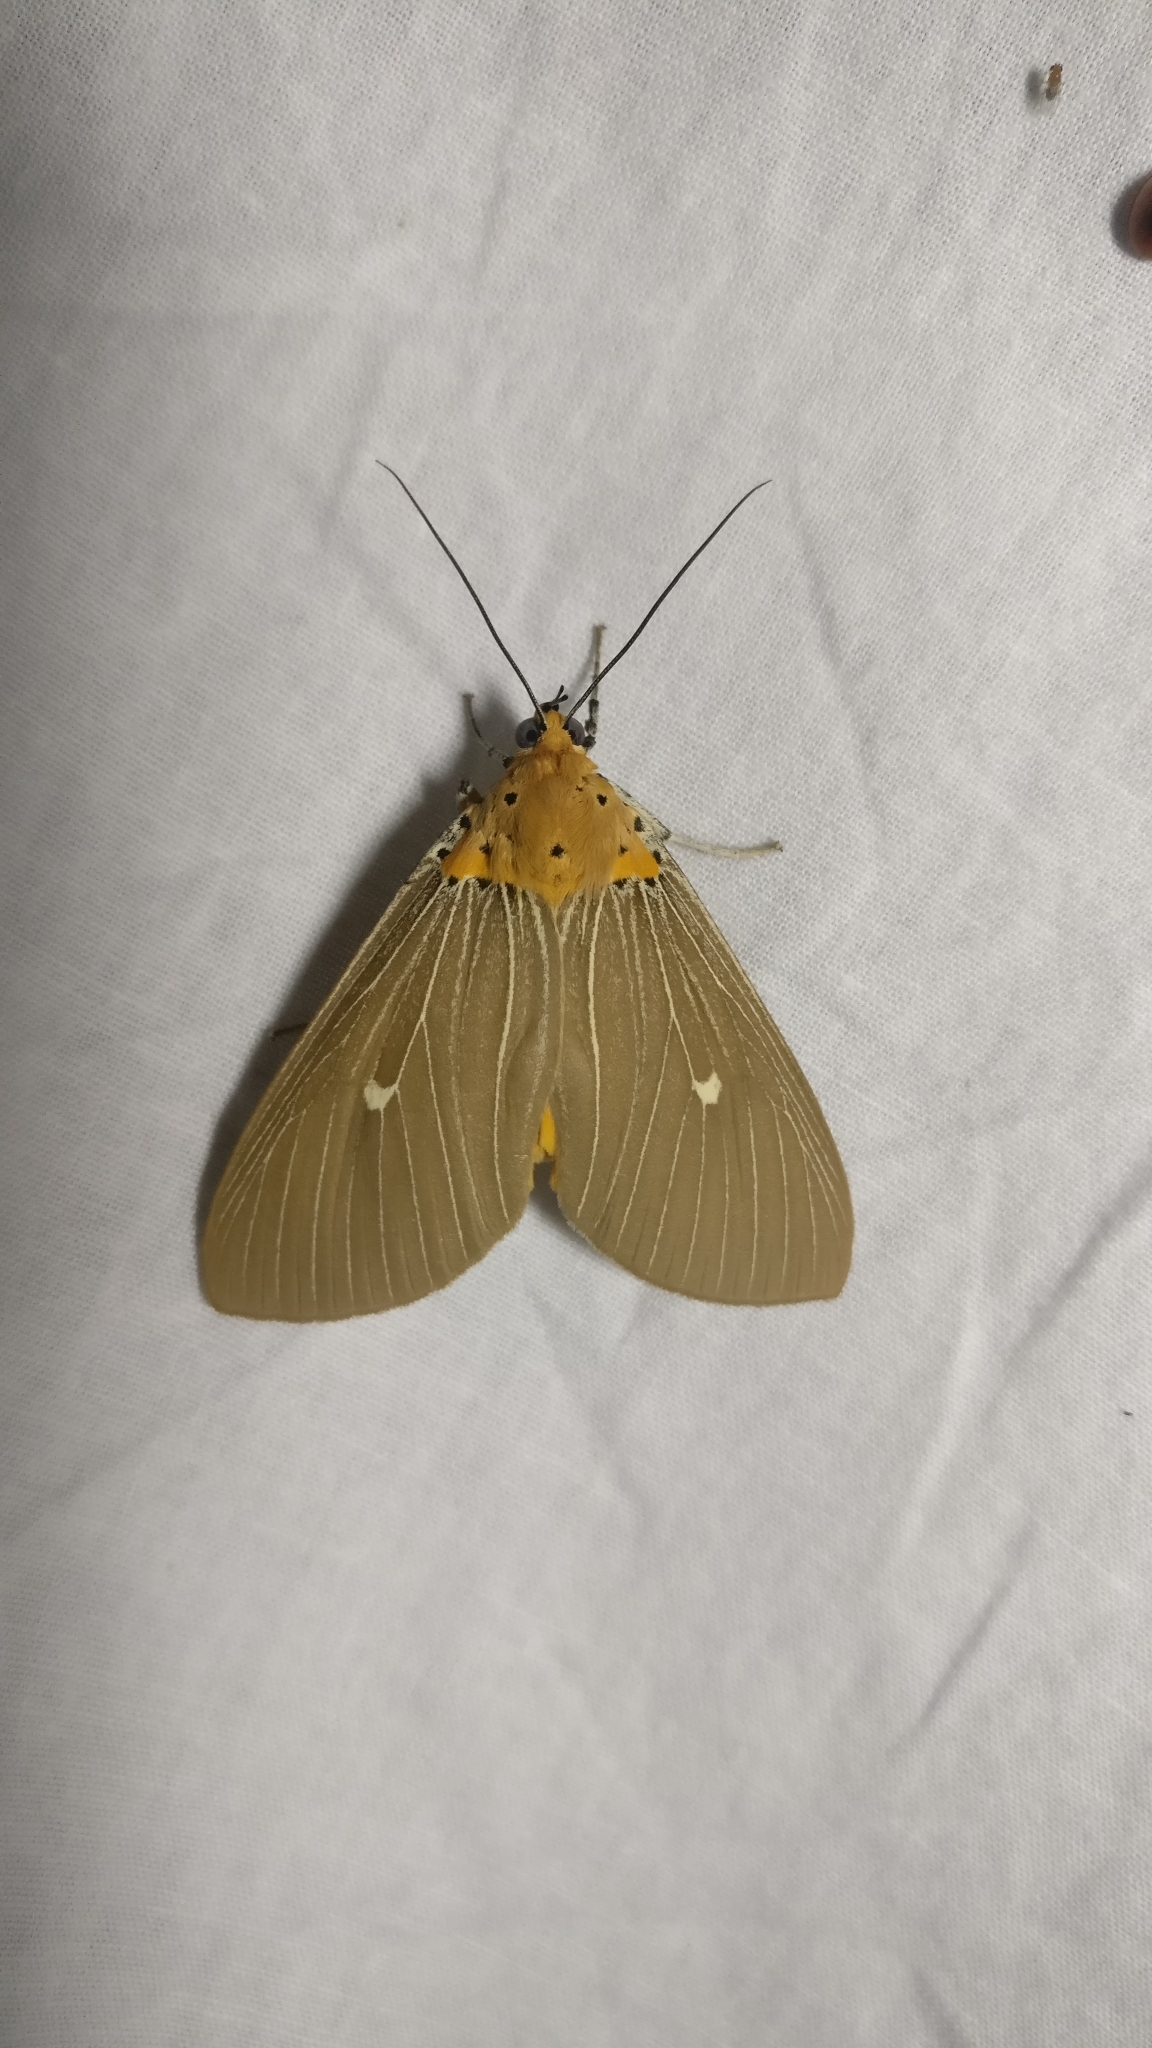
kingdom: Animalia
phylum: Arthropoda
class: Insecta
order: Lepidoptera
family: Erebidae
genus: Asota
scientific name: Asota caricae
